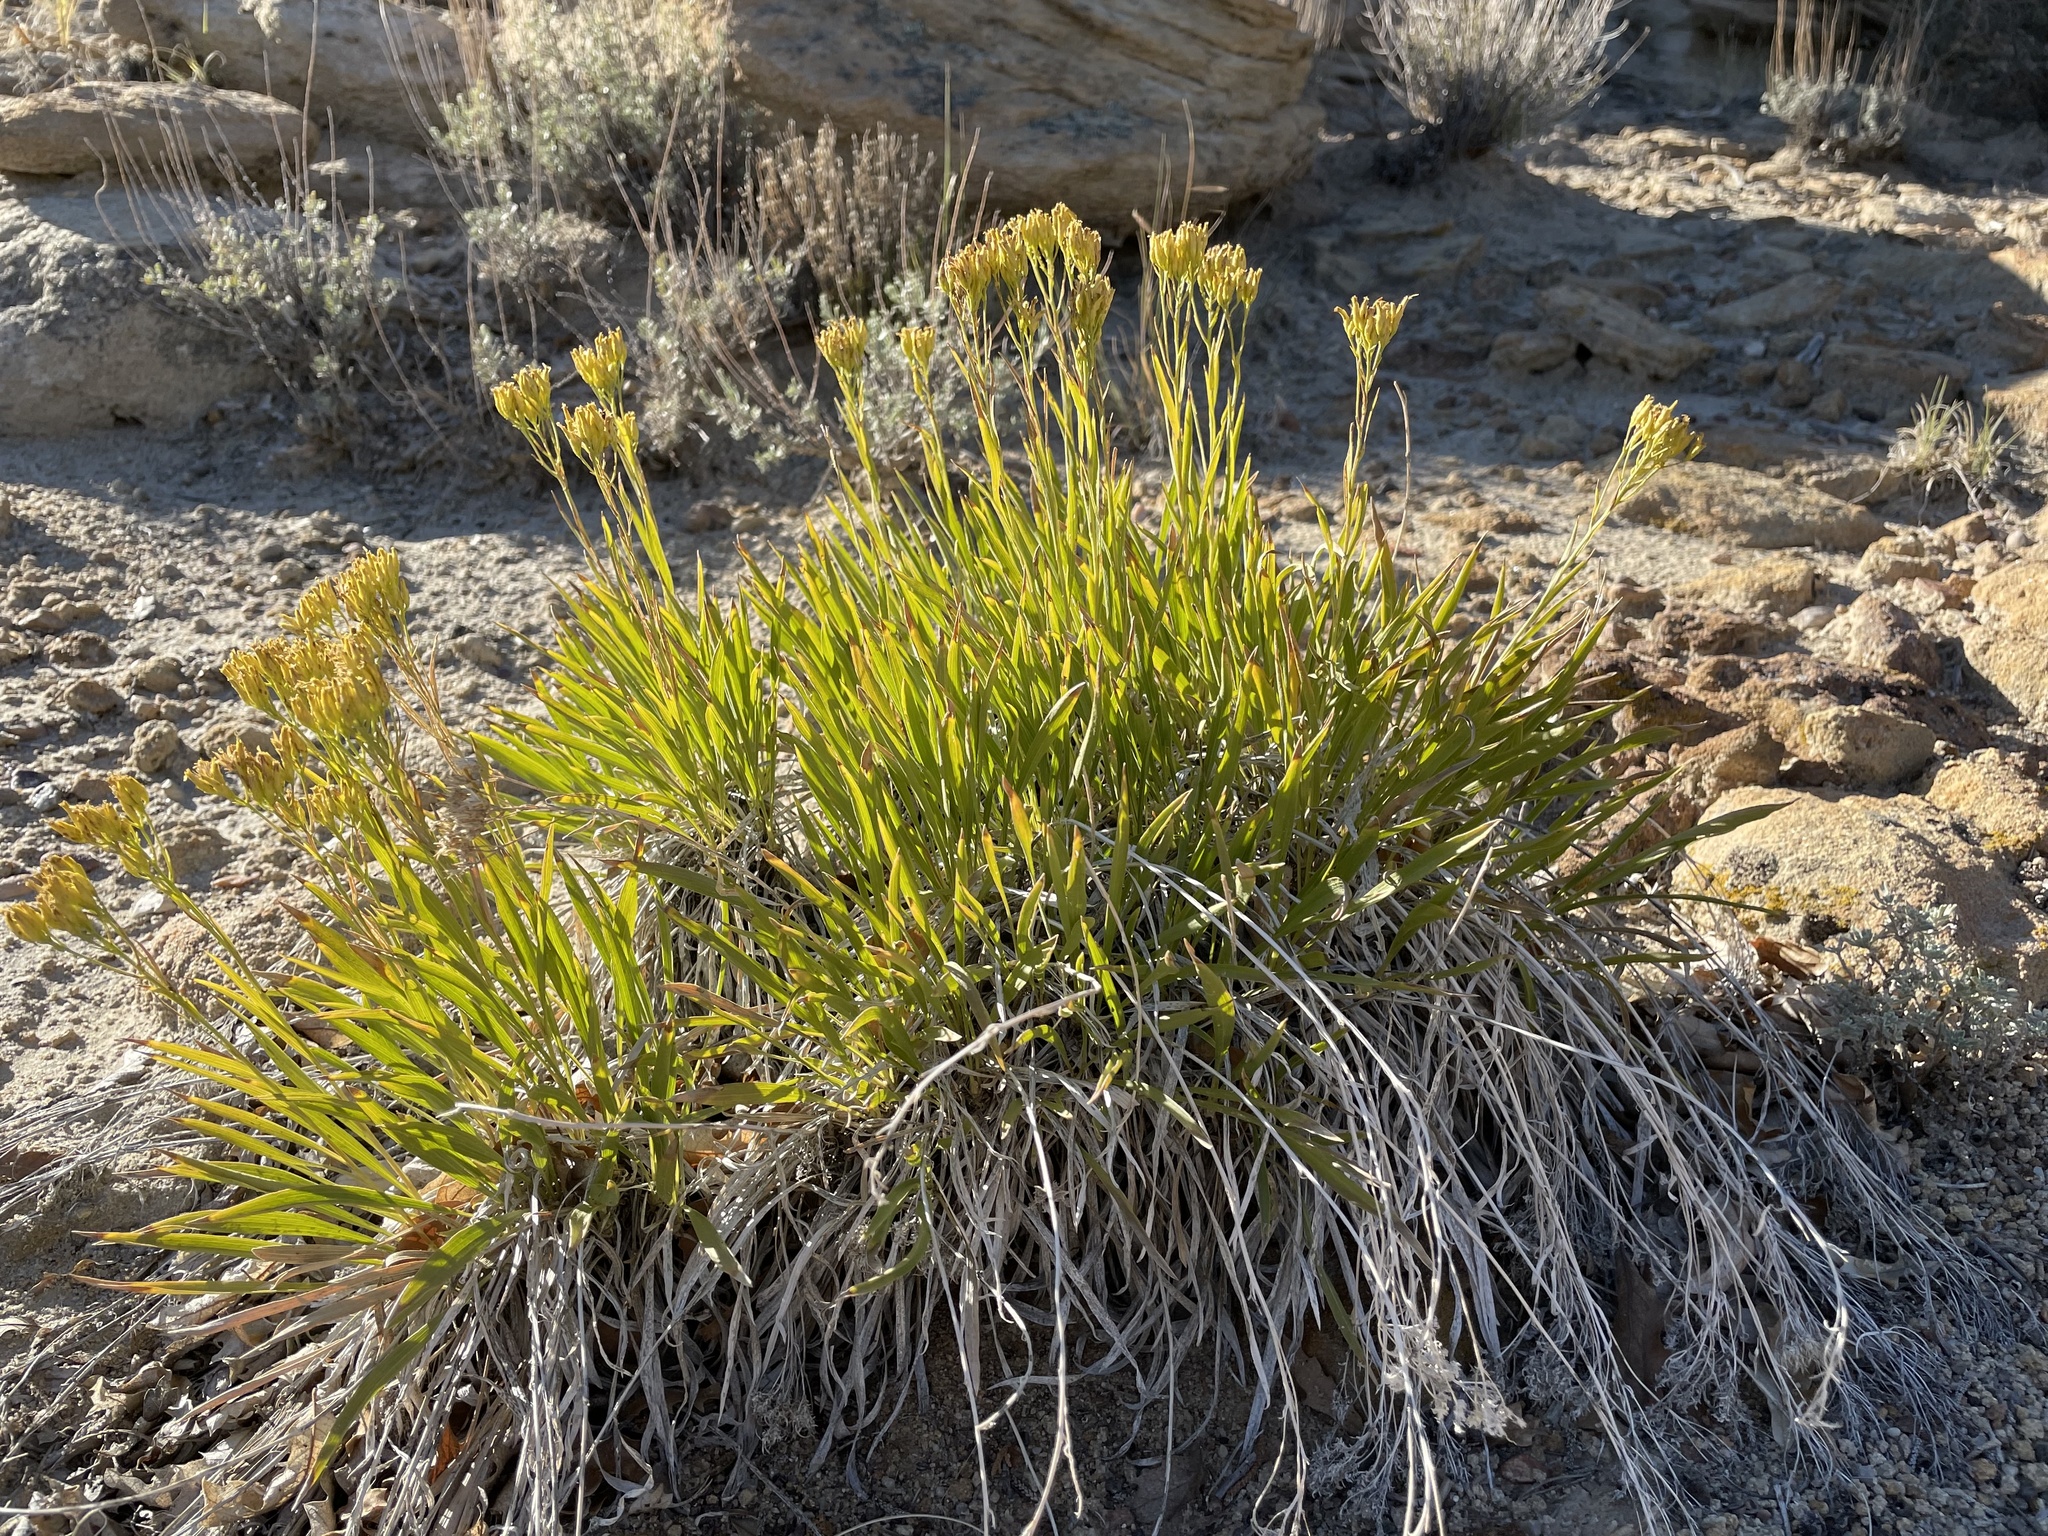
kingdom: Plantae
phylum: Tracheophyta
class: Magnoliopsida
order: Asterales
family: Asteraceae
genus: Petradoria
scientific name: Petradoria pumila
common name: Rock-goldenrod
